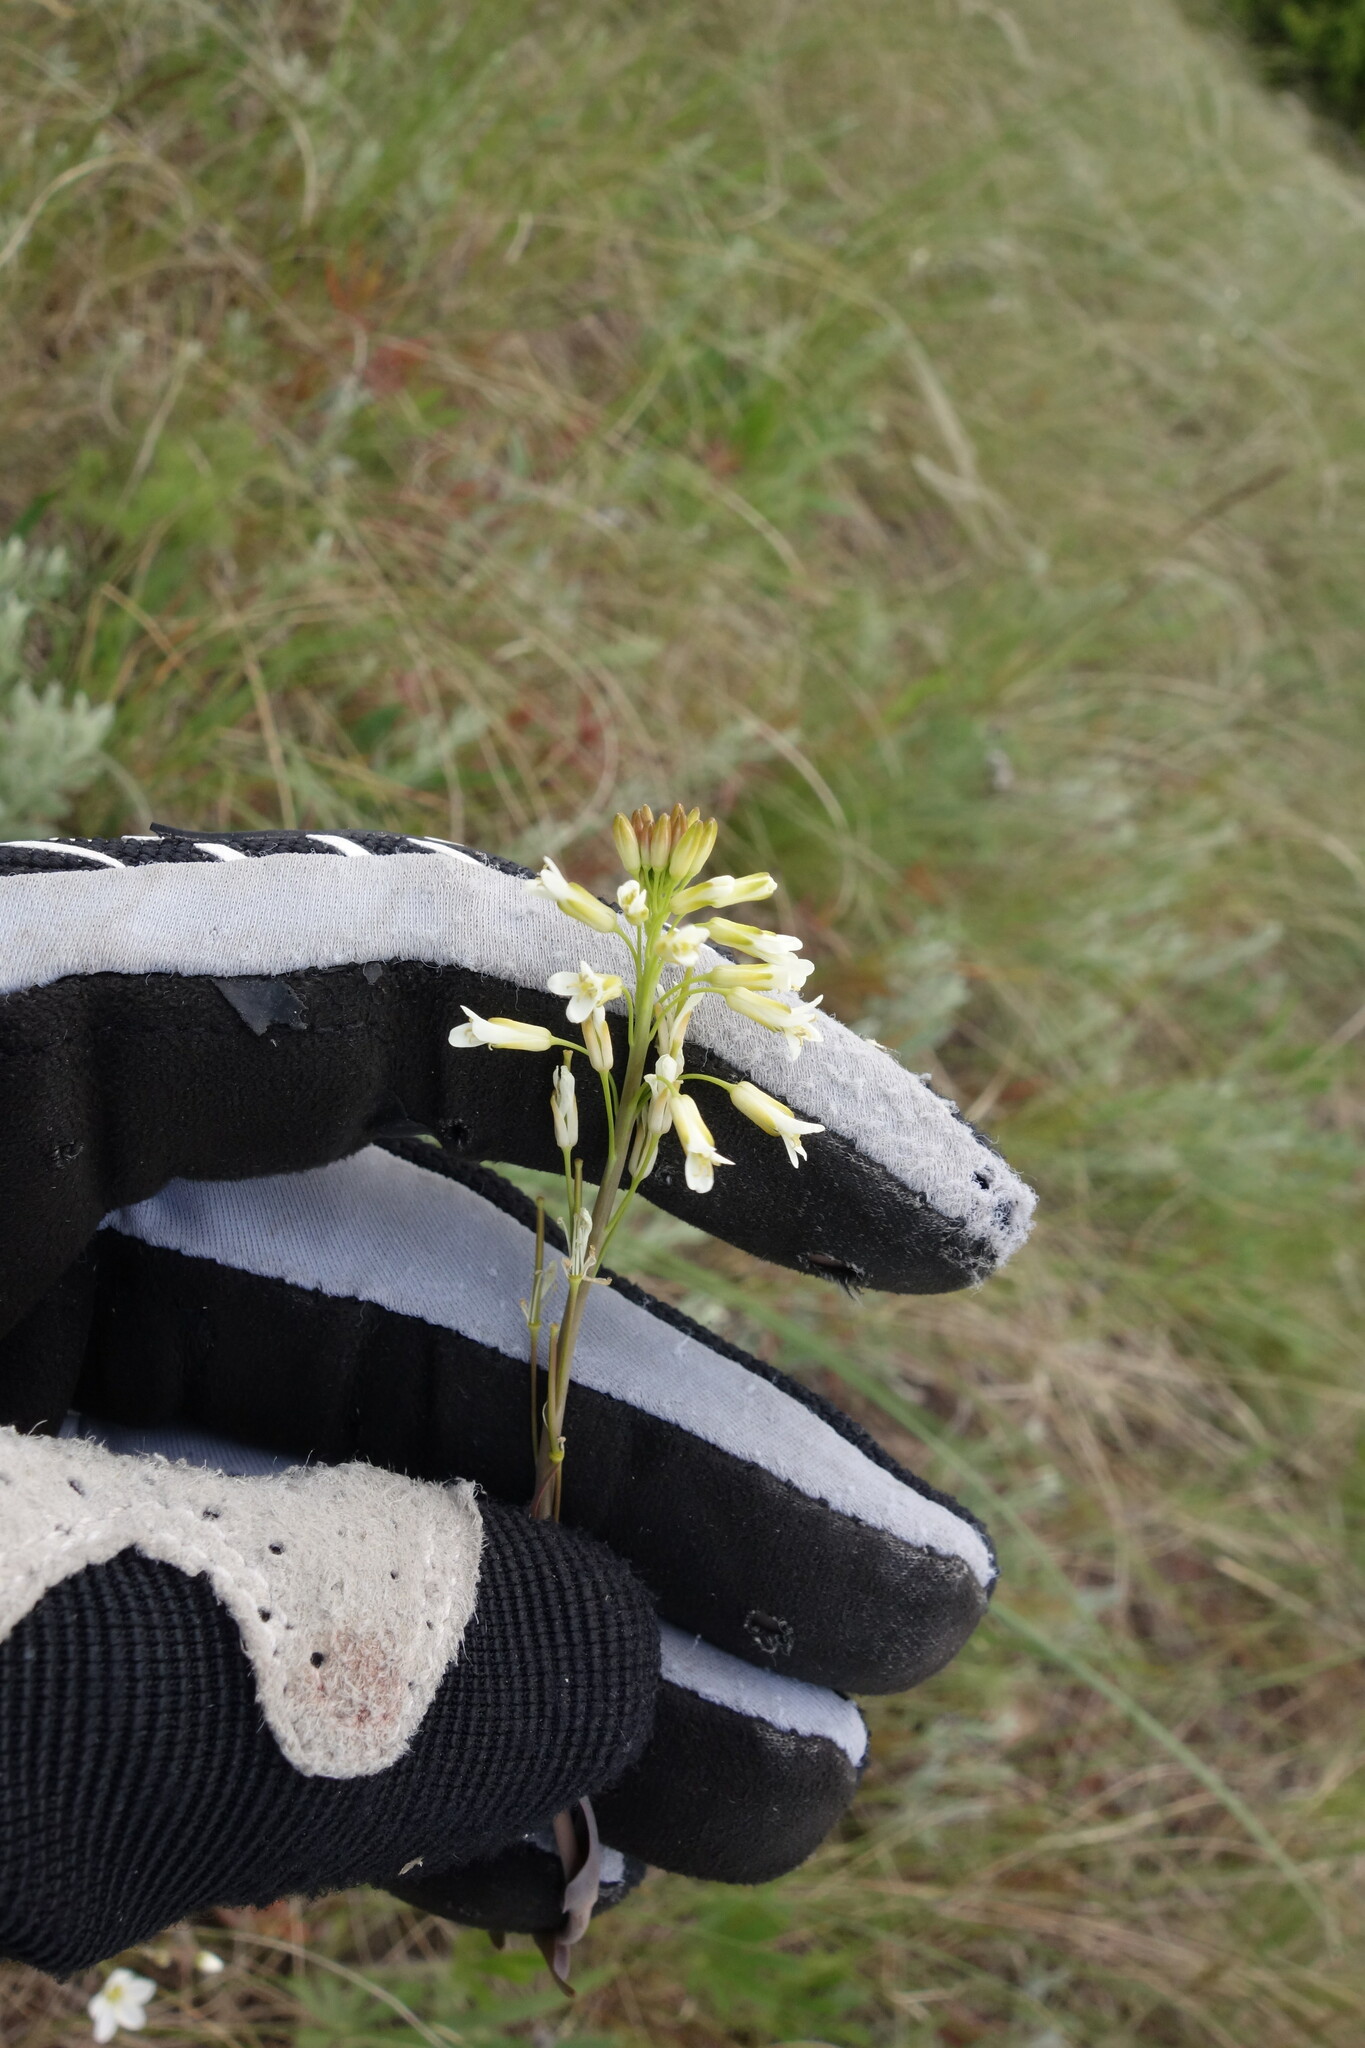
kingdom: Plantae
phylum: Tracheophyta
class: Magnoliopsida
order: Brassicales
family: Brassicaceae
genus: Turritis
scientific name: Turritis glabra
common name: Tower rockcress
